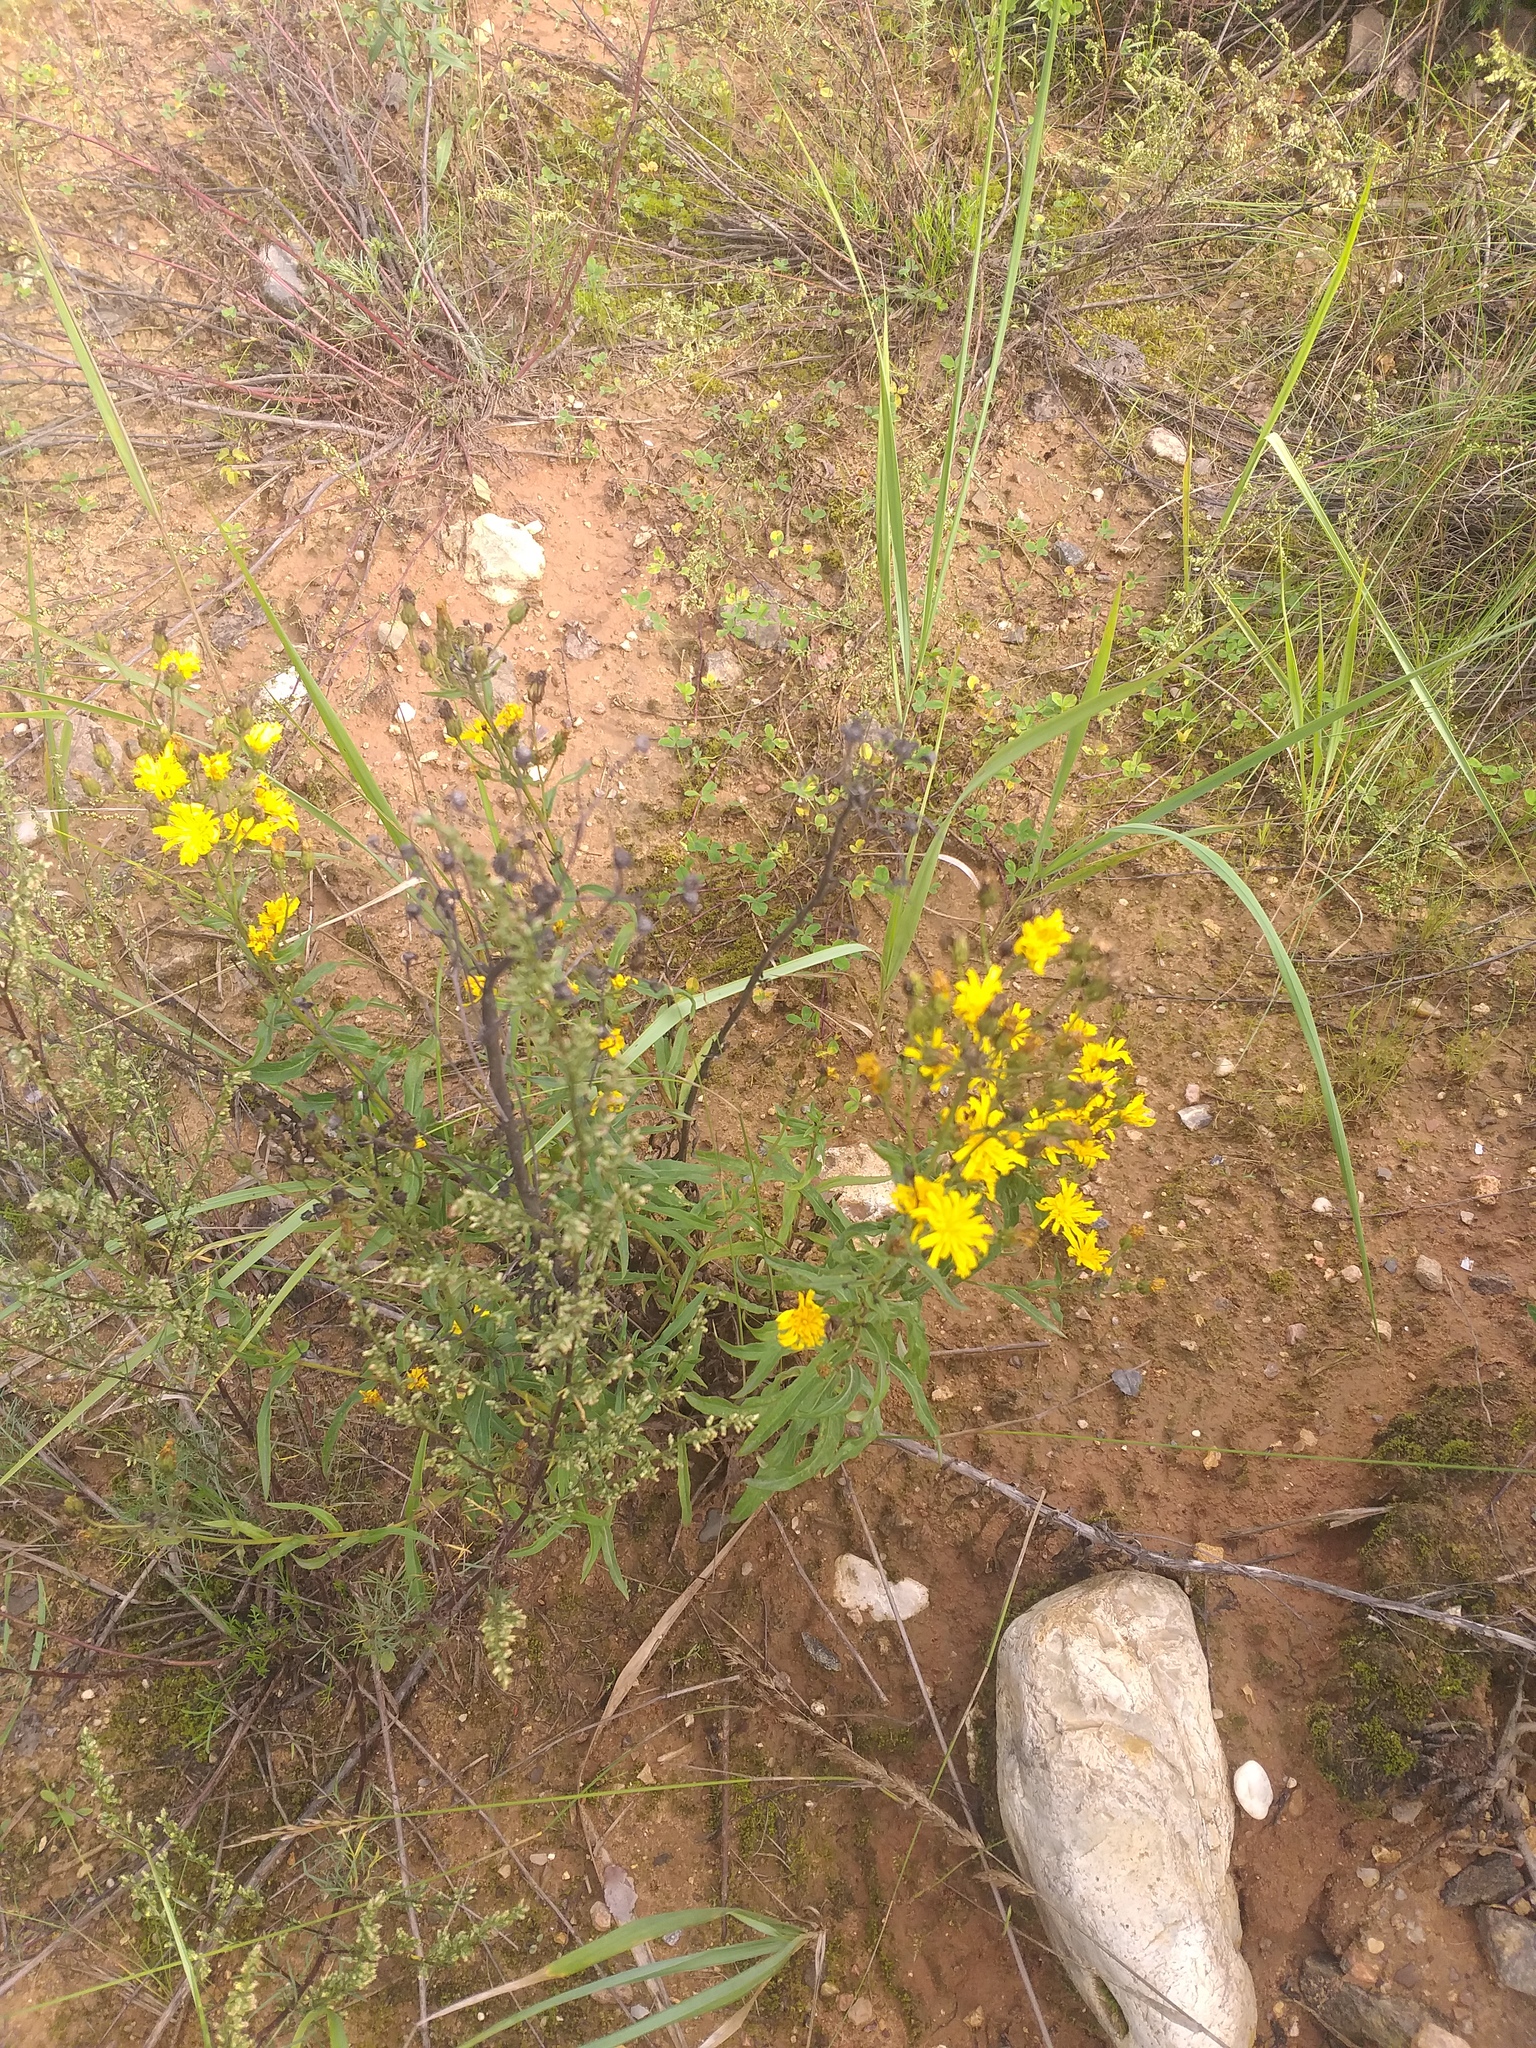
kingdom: Plantae
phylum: Tracheophyta
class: Magnoliopsida
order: Asterales
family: Asteraceae
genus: Hieracium
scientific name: Hieracium umbellatum
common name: Northern hawkweed
